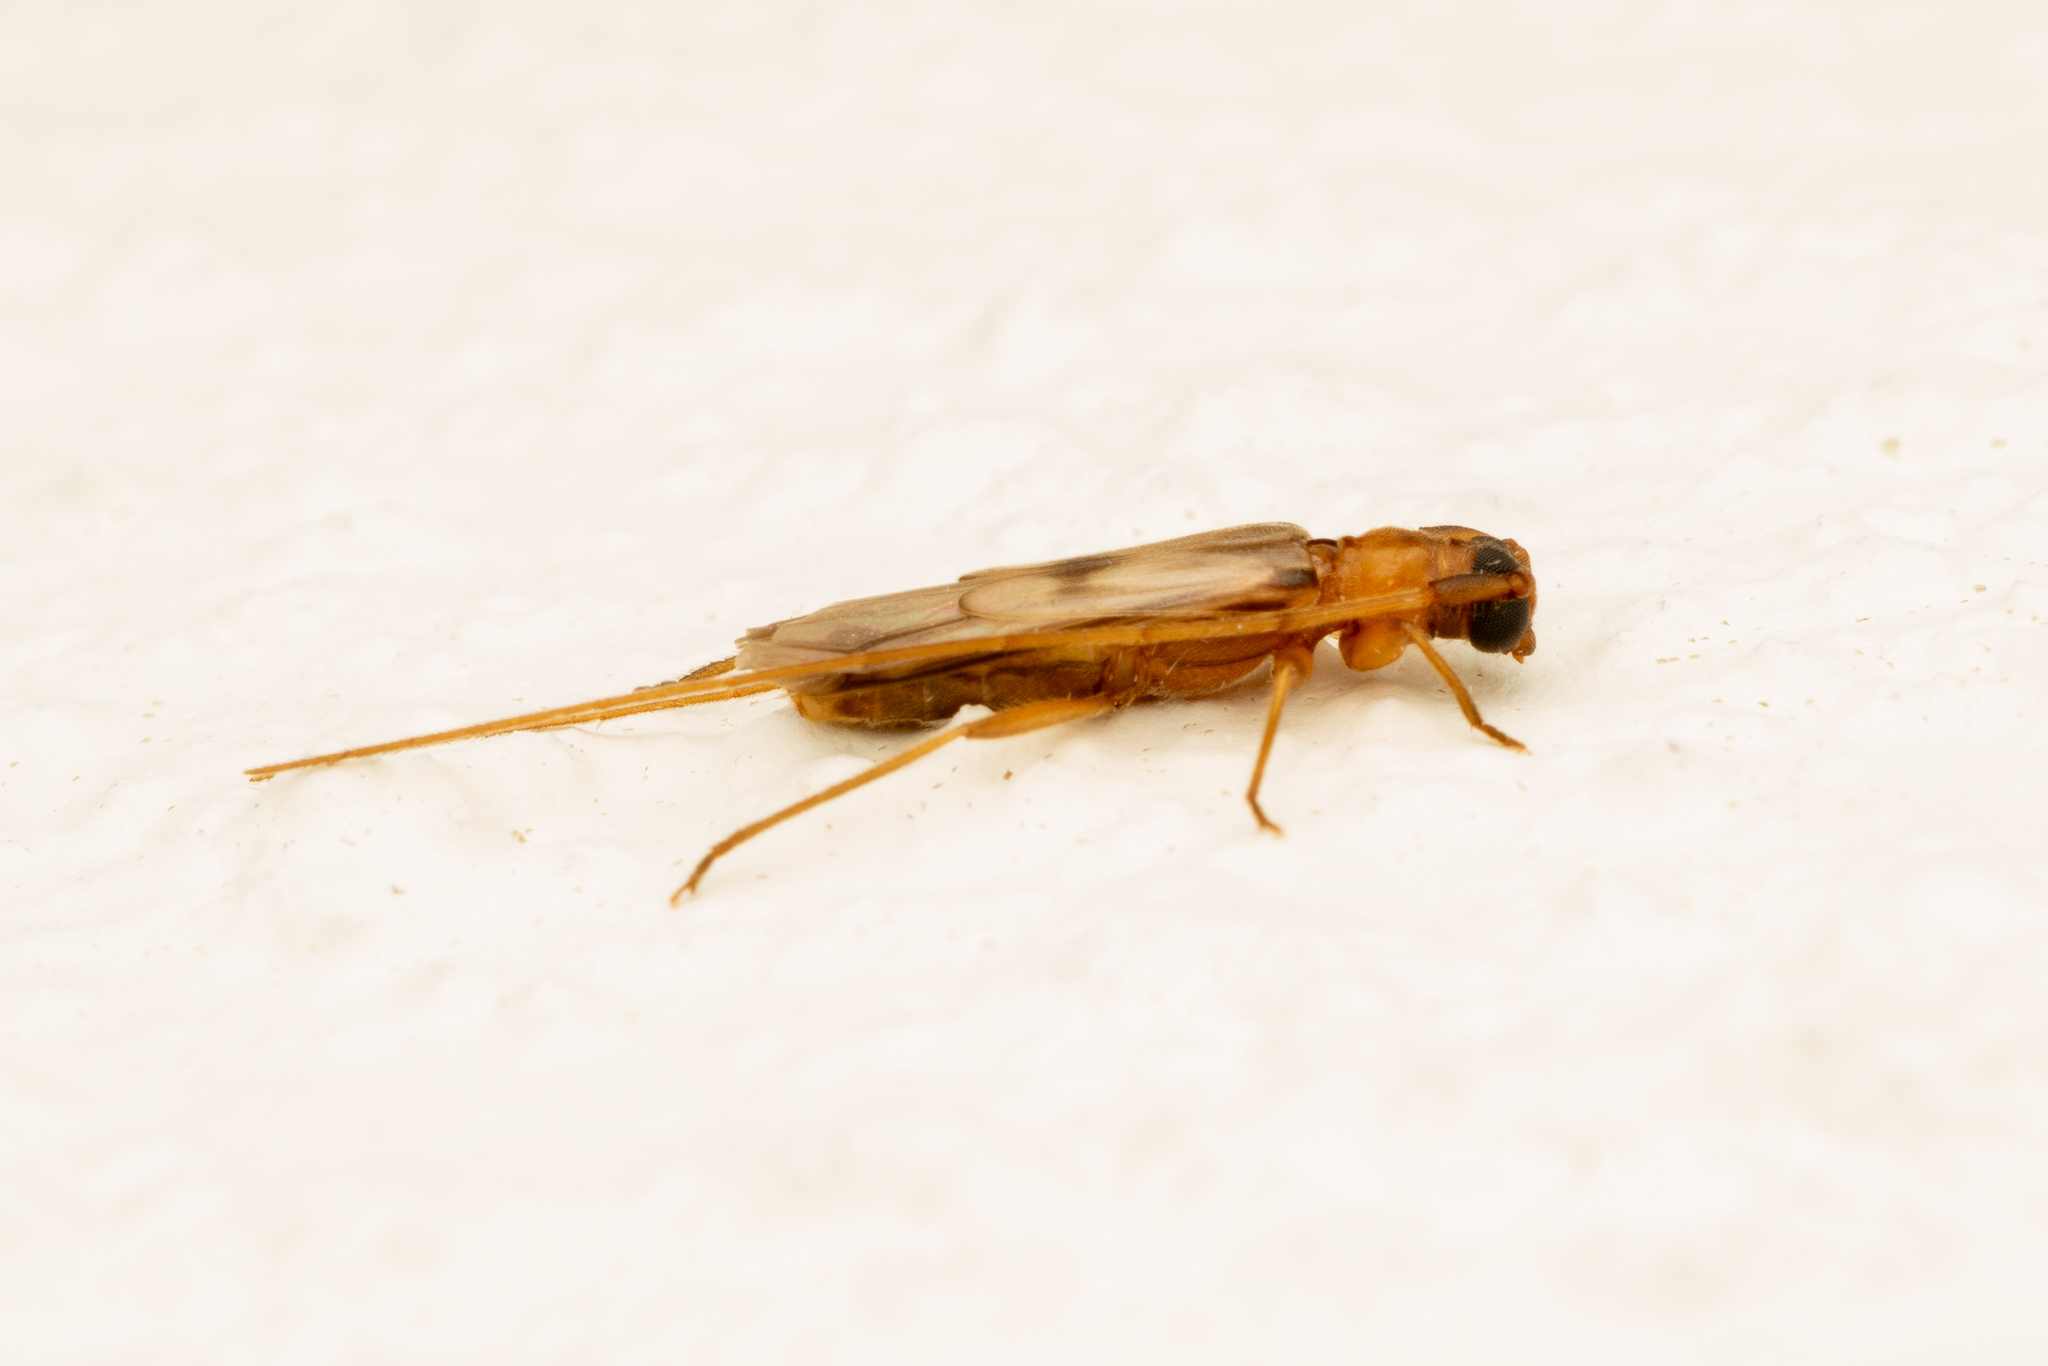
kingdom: Animalia
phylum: Arthropoda
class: Insecta
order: Coleoptera
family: Cerambycidae
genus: Methia
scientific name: Methia necydalea
